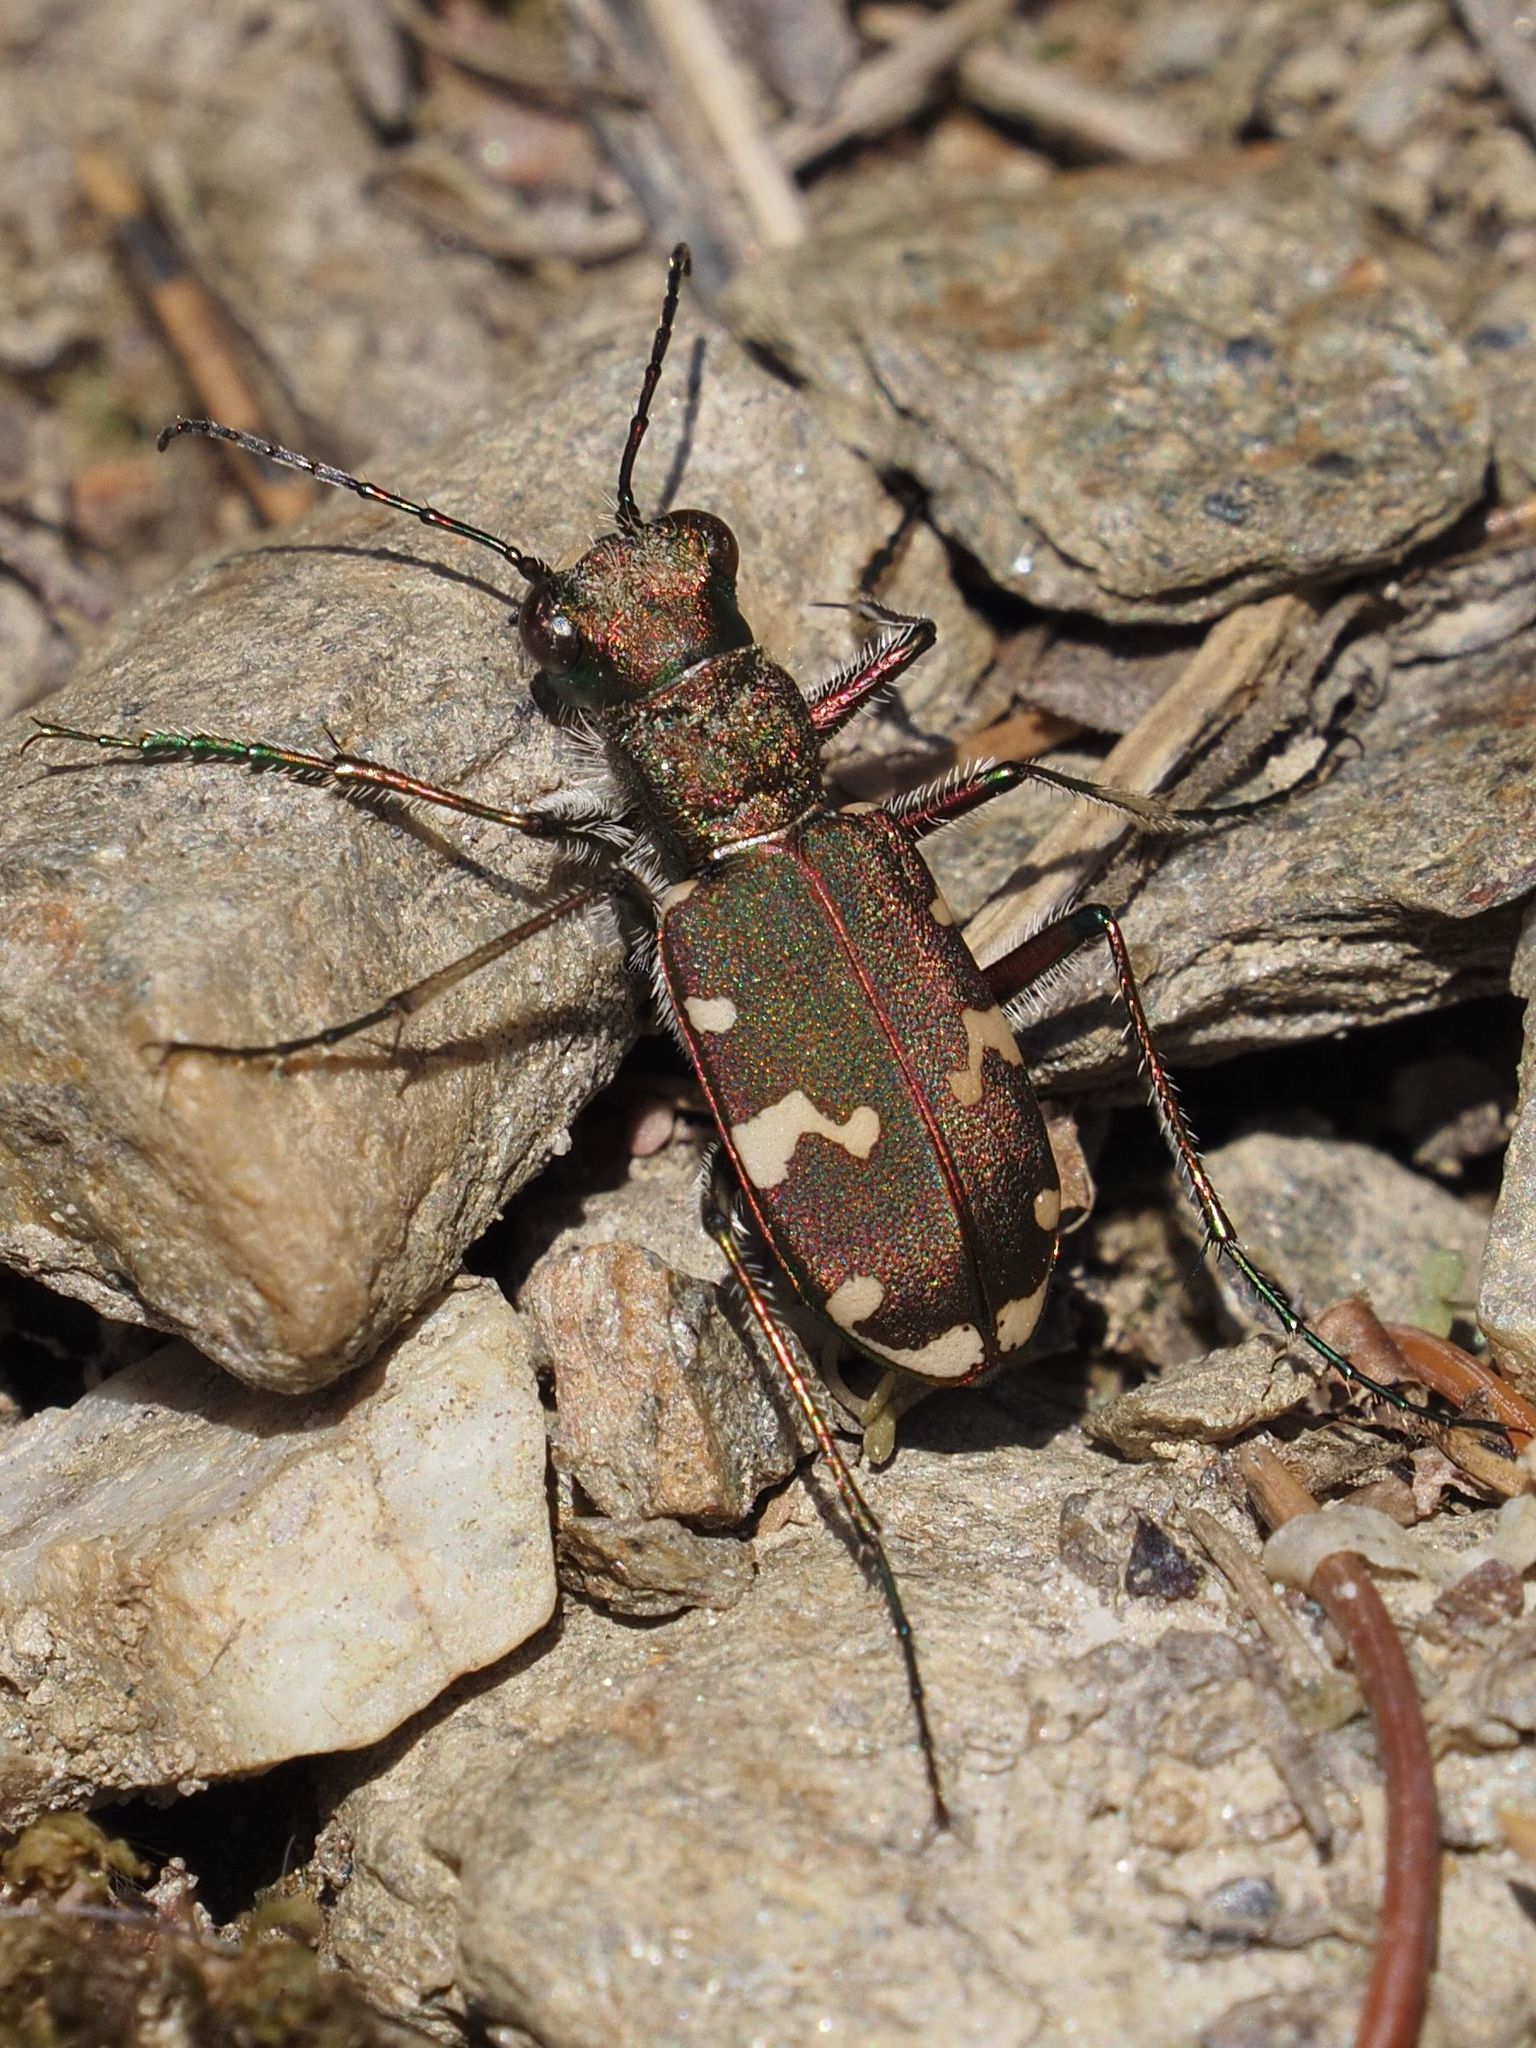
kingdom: Animalia
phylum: Arthropoda
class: Insecta
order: Coleoptera
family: Carabidae
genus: Cicindela
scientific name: Cicindela sylvicola
